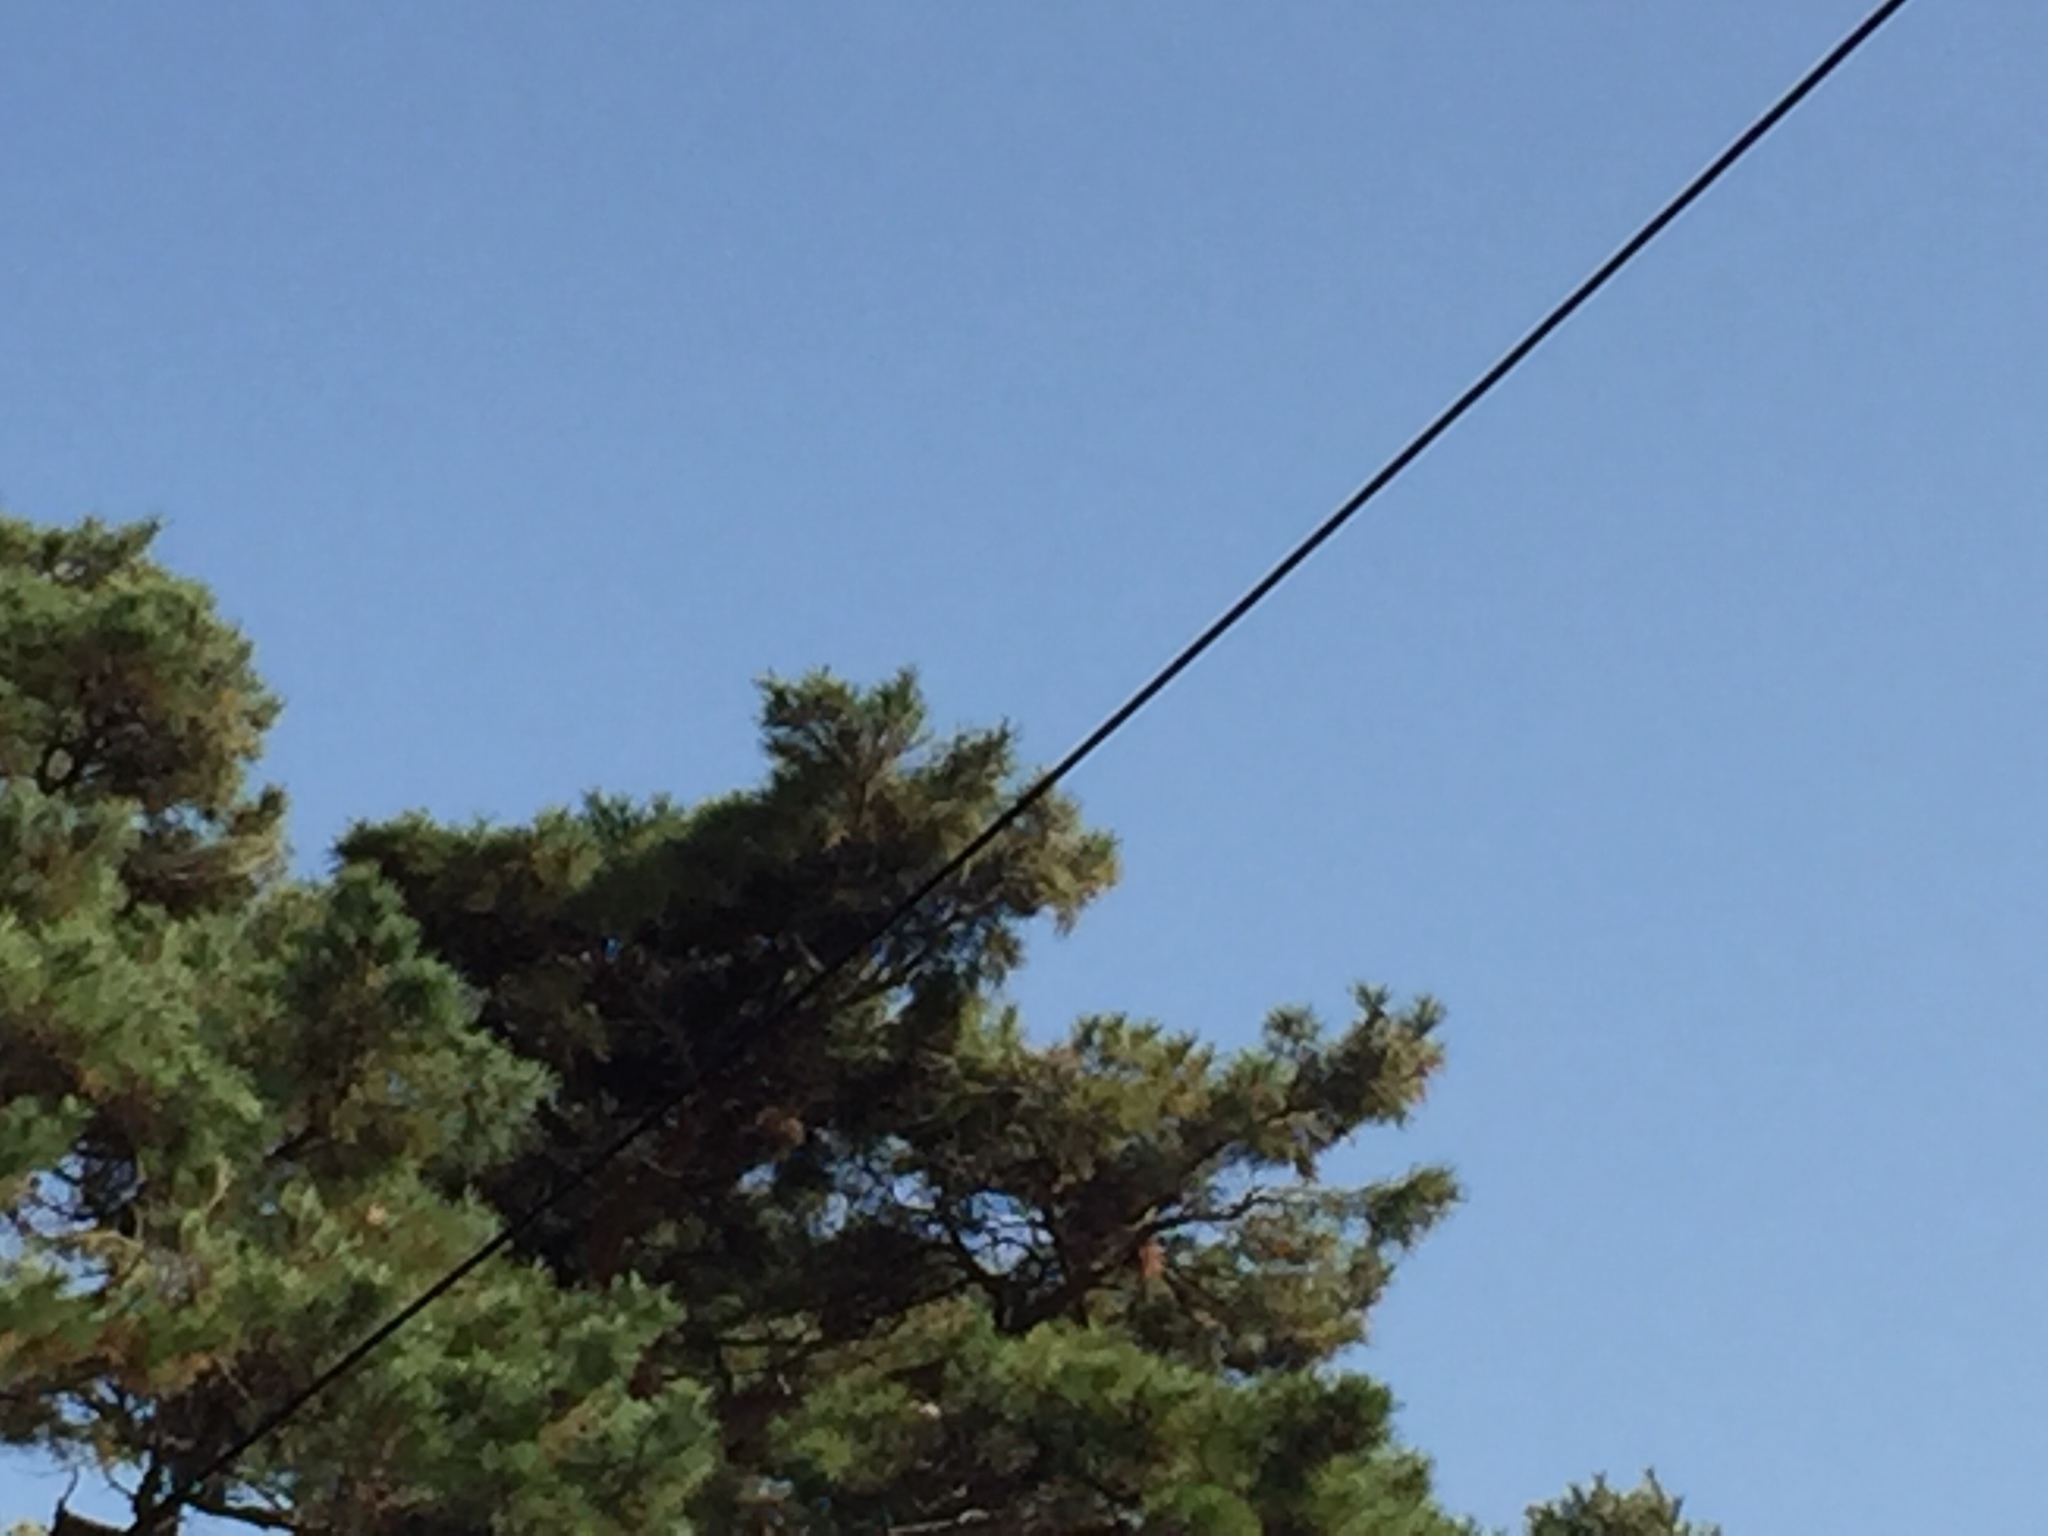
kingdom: Plantae
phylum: Tracheophyta
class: Liliopsida
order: Poales
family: Poaceae
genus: Chloris
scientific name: Chloris sinica
